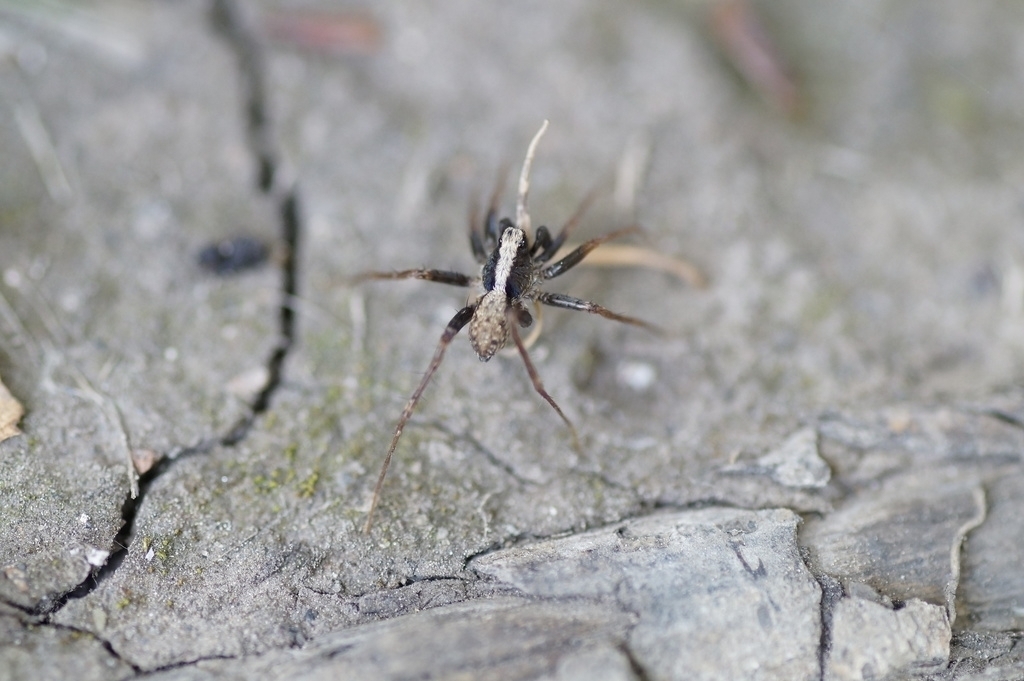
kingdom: Animalia
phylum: Arthropoda
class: Arachnida
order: Araneae
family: Lycosidae
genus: Pardosa
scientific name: Pardosa
